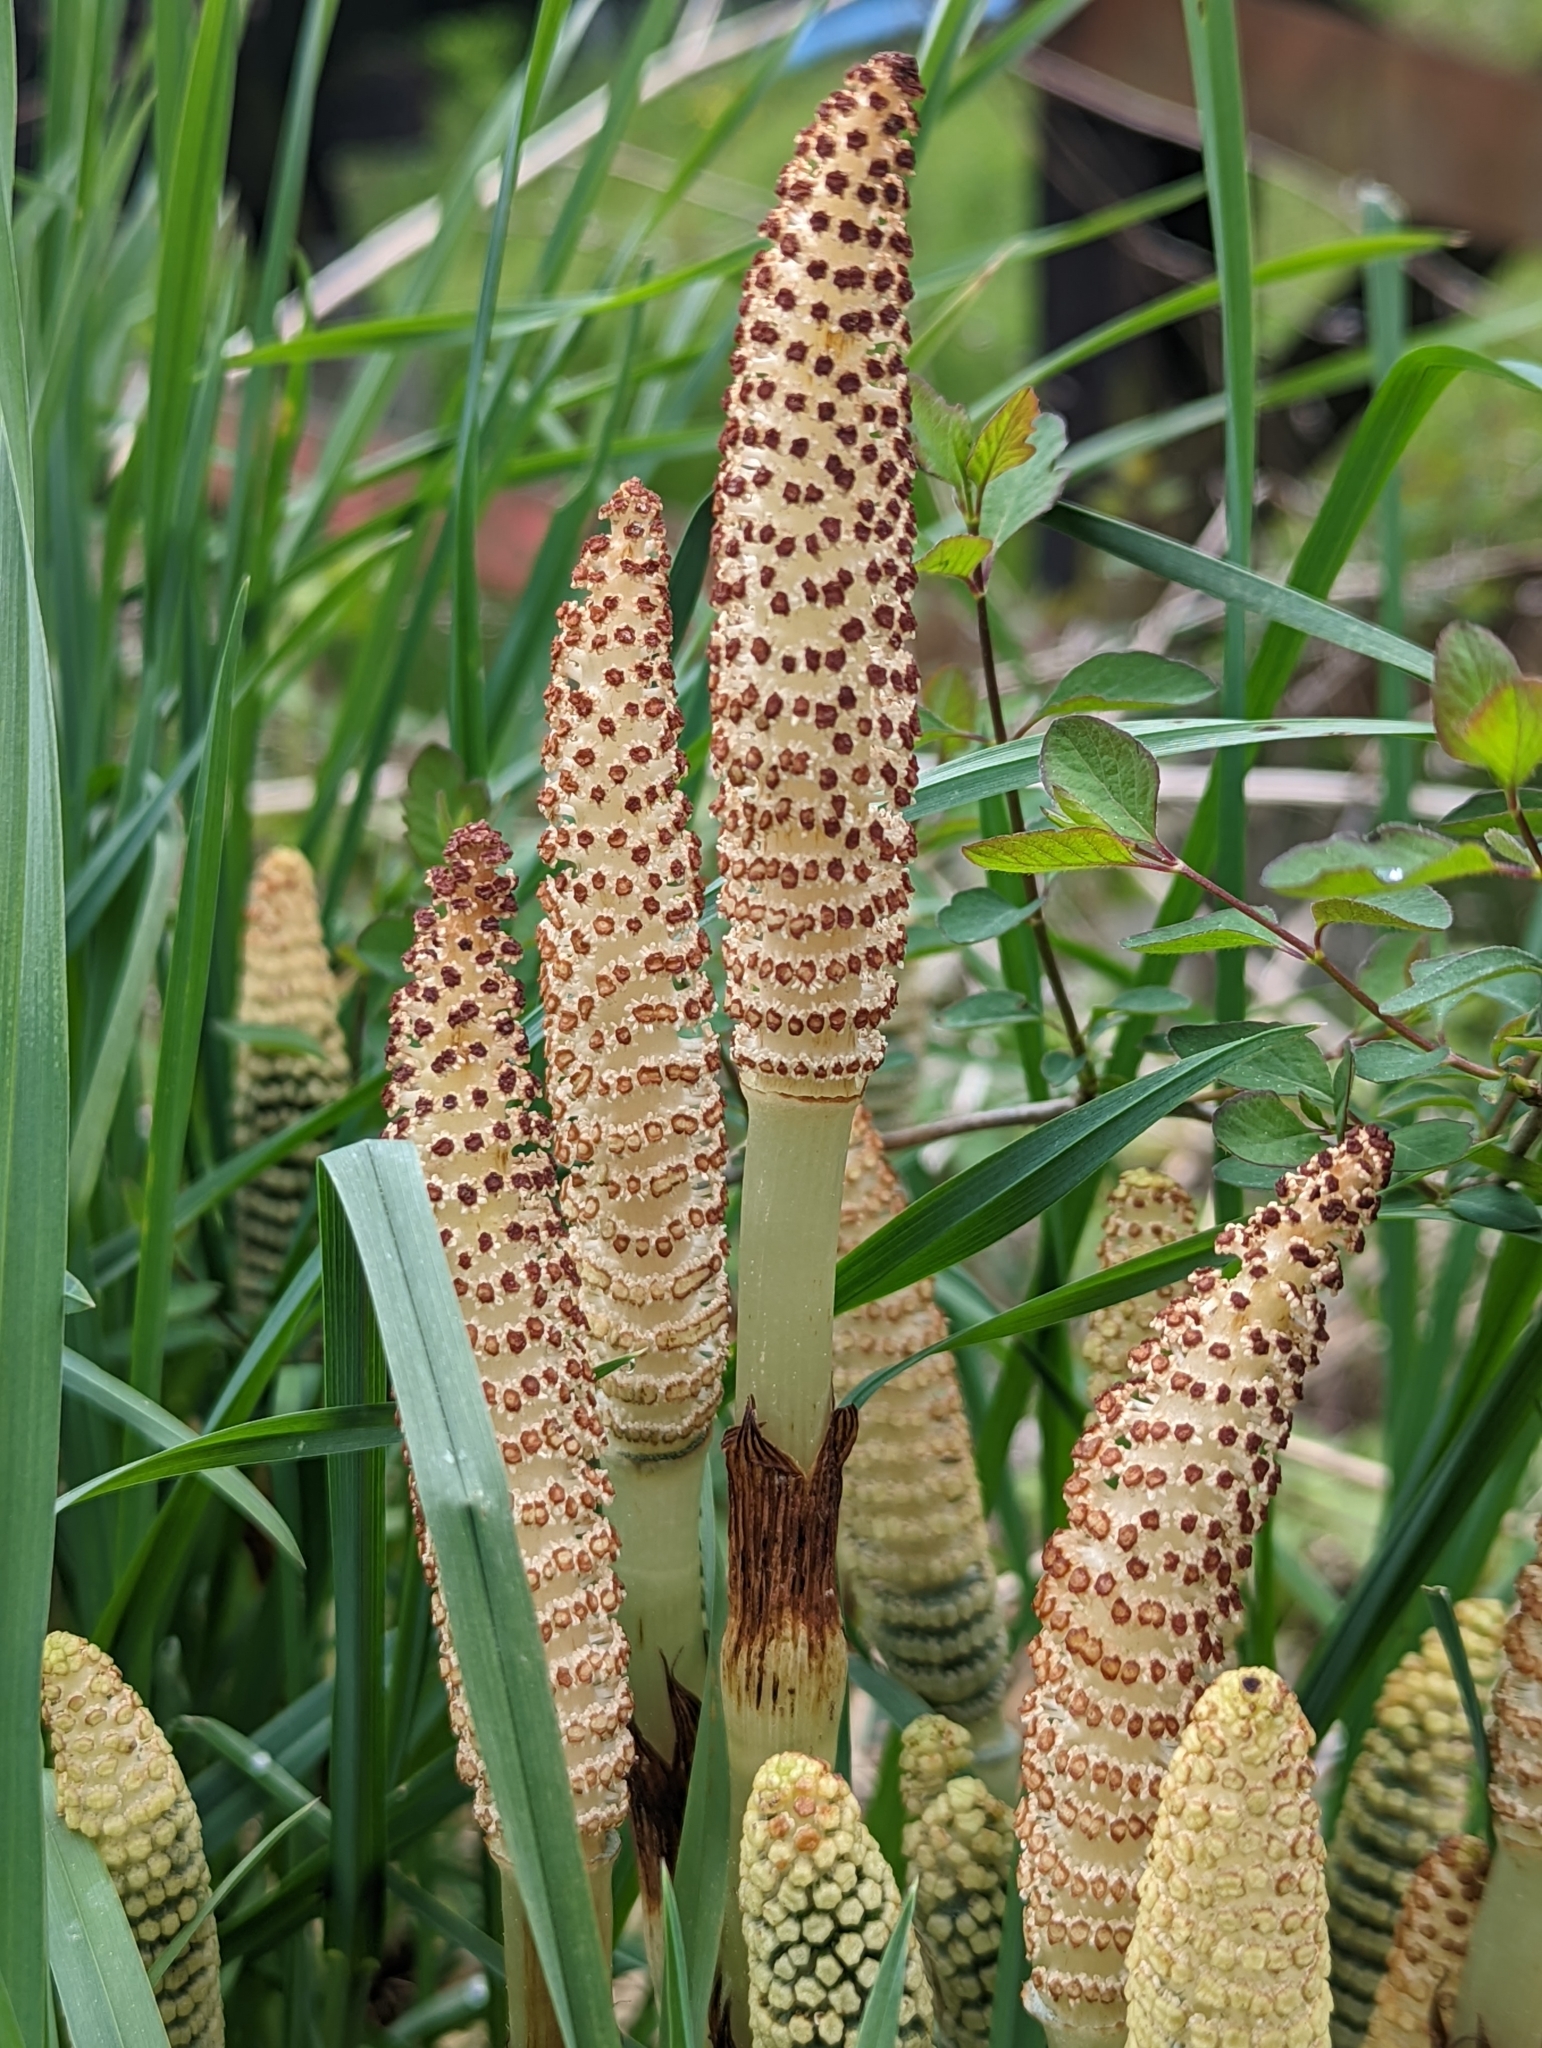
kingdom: Plantae
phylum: Tracheophyta
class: Polypodiopsida
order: Equisetales
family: Equisetaceae
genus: Equisetum
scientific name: Equisetum telmateia
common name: Great horsetail
